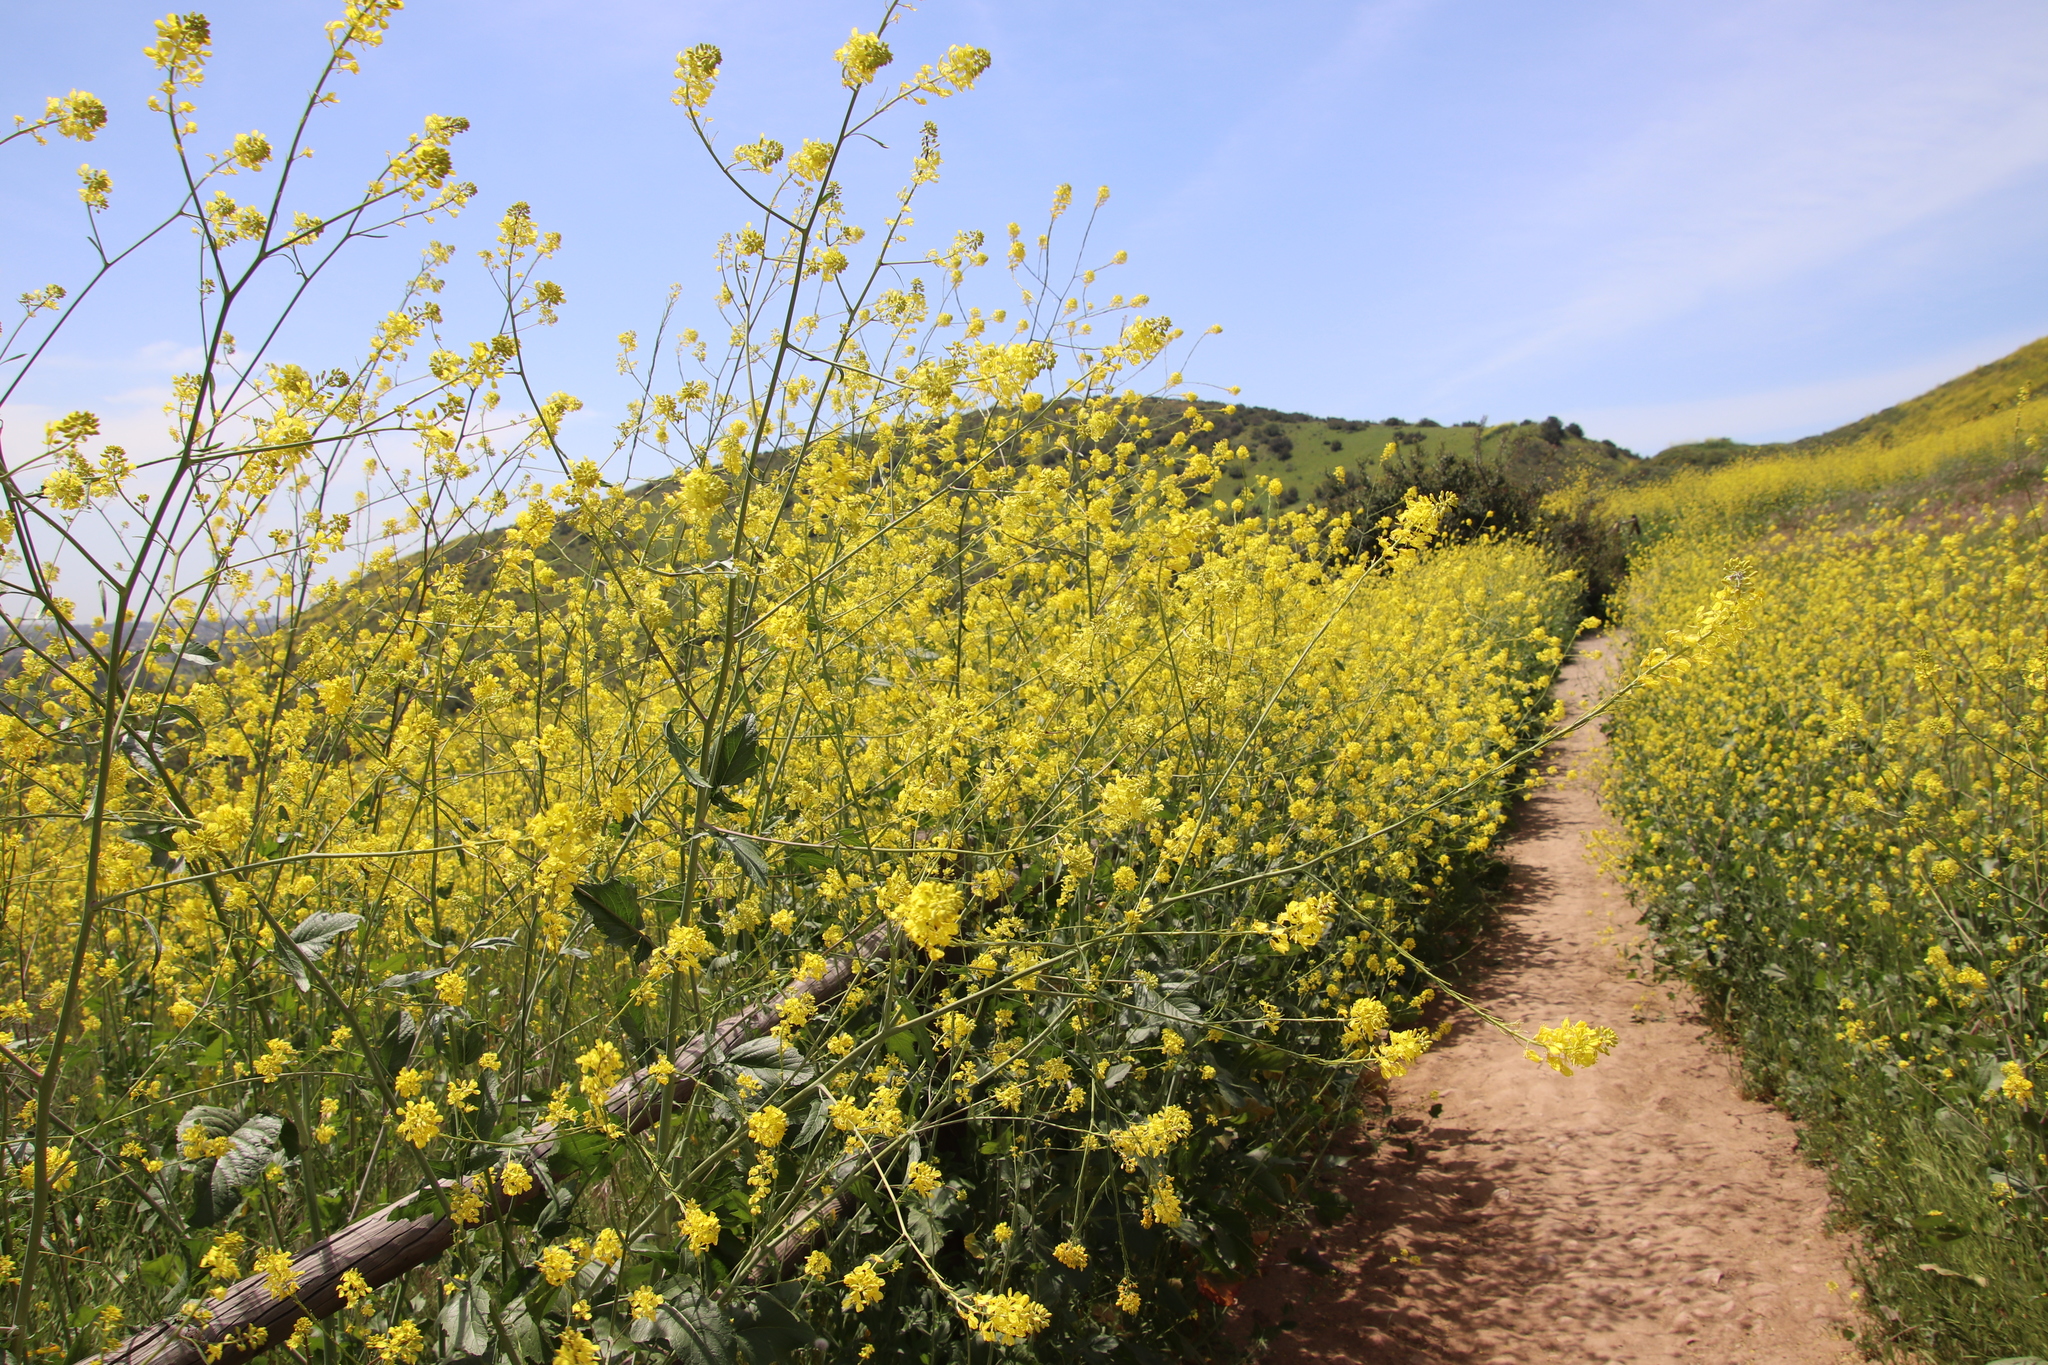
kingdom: Plantae
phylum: Tracheophyta
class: Magnoliopsida
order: Brassicales
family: Brassicaceae
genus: Brassica
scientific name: Brassica nigra
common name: Black mustard
